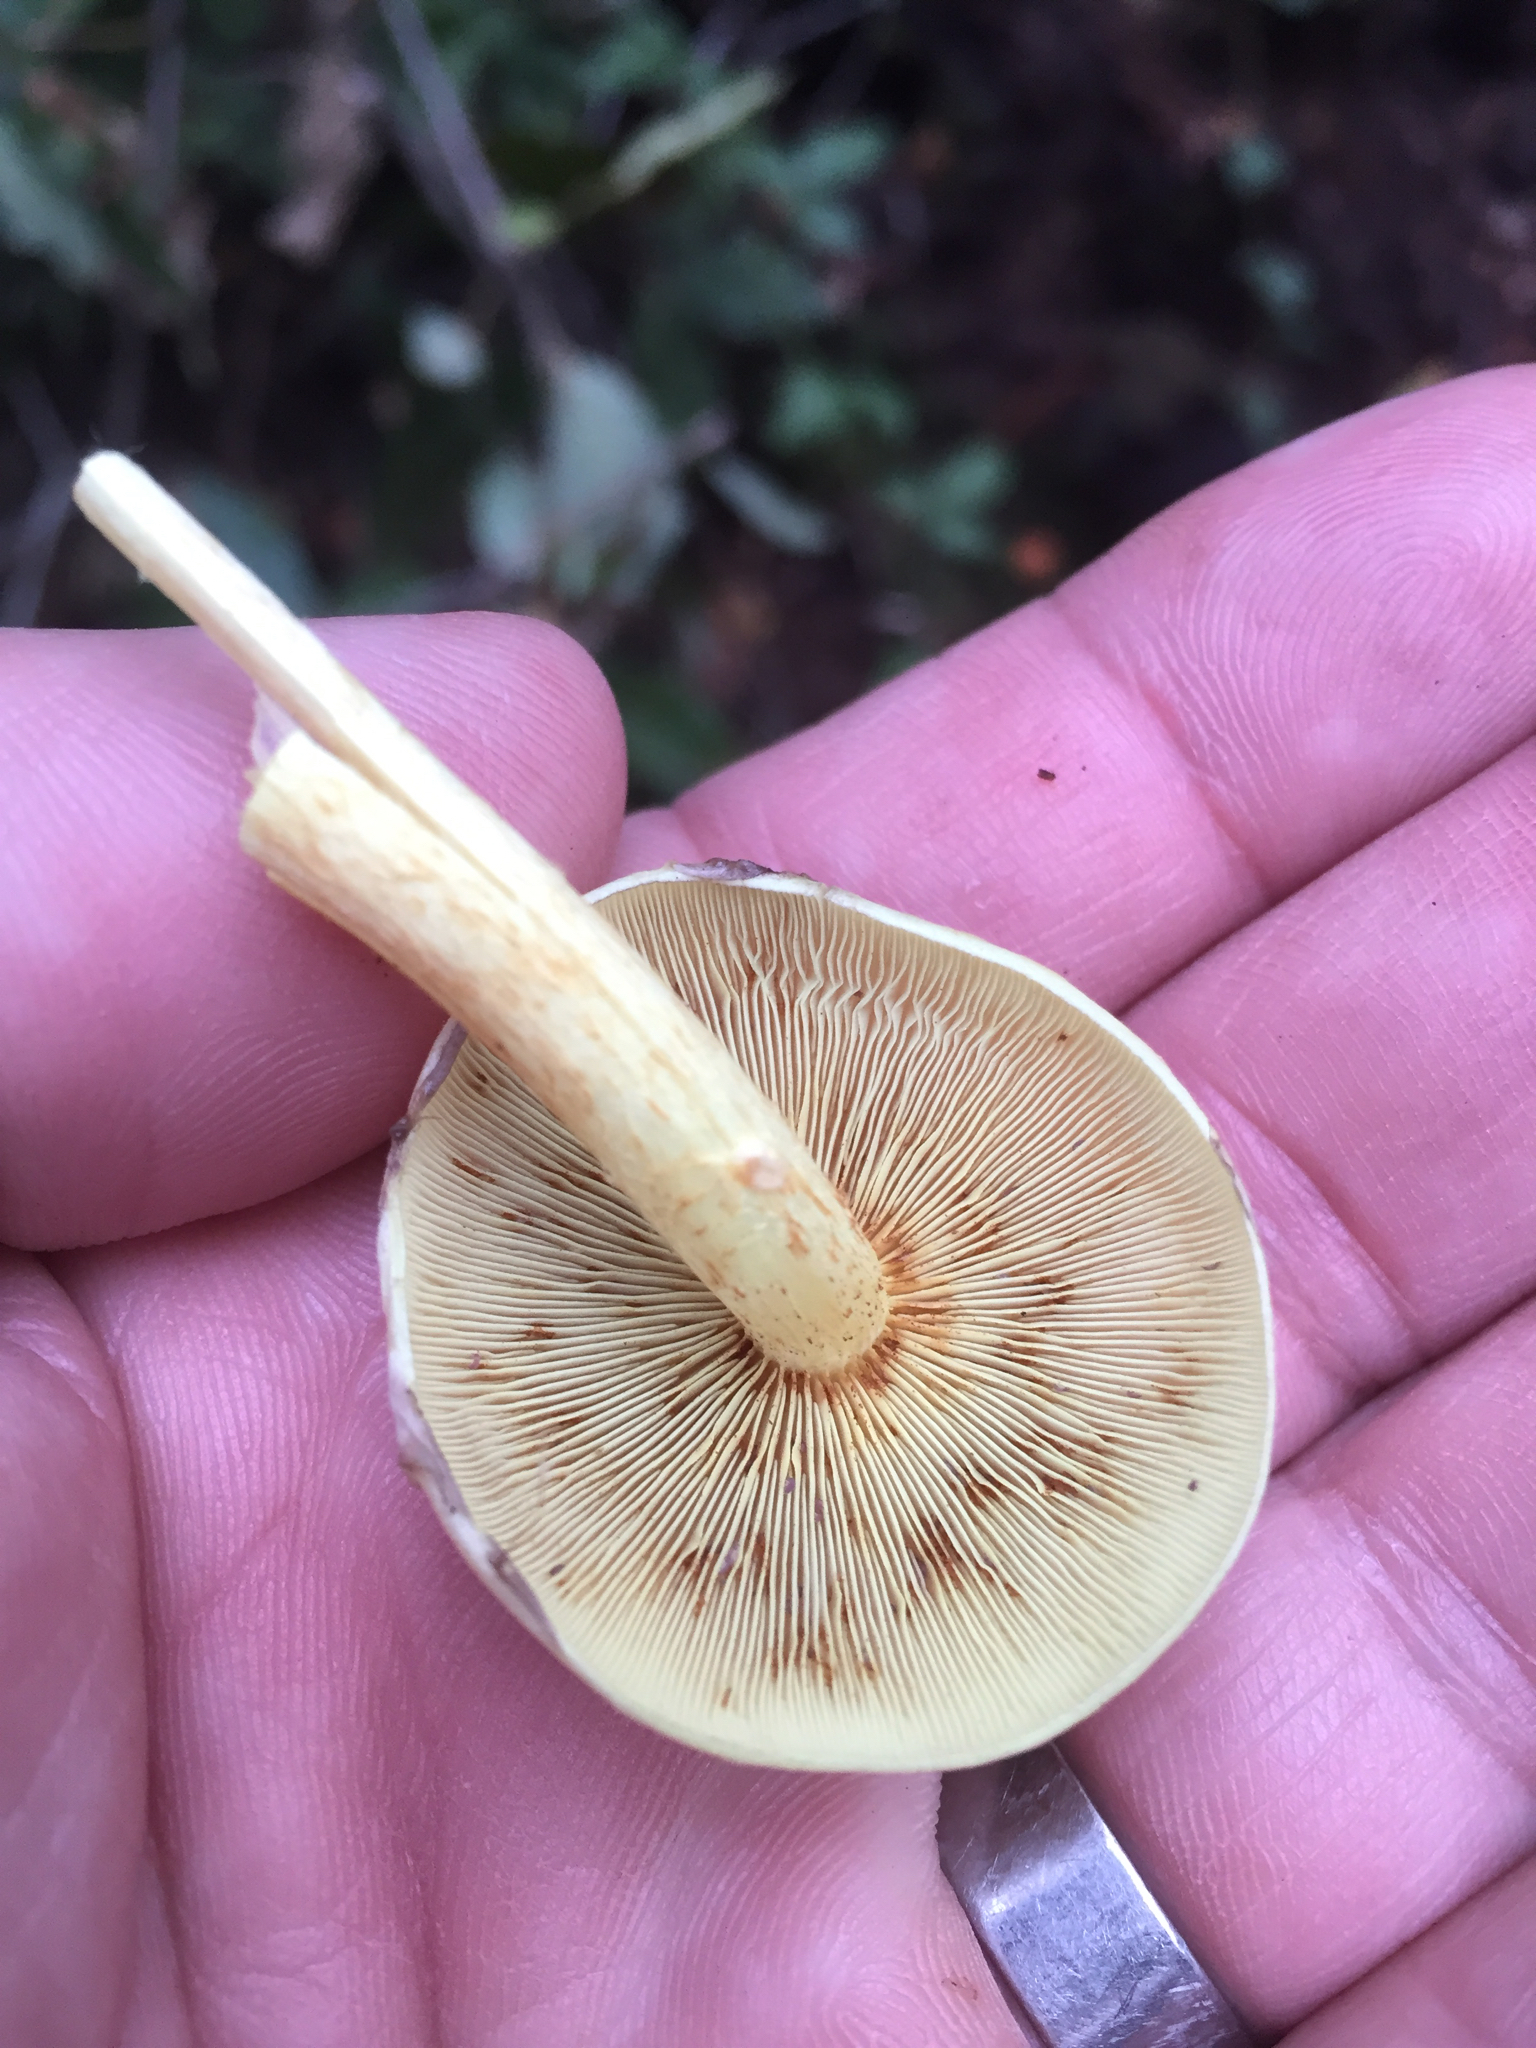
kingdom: Fungi
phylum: Basidiomycota
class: Agaricomycetes
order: Agaricales
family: Strophariaceae
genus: Hypholoma
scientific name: Hypholoma fasciculare
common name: Sulphur tuft
